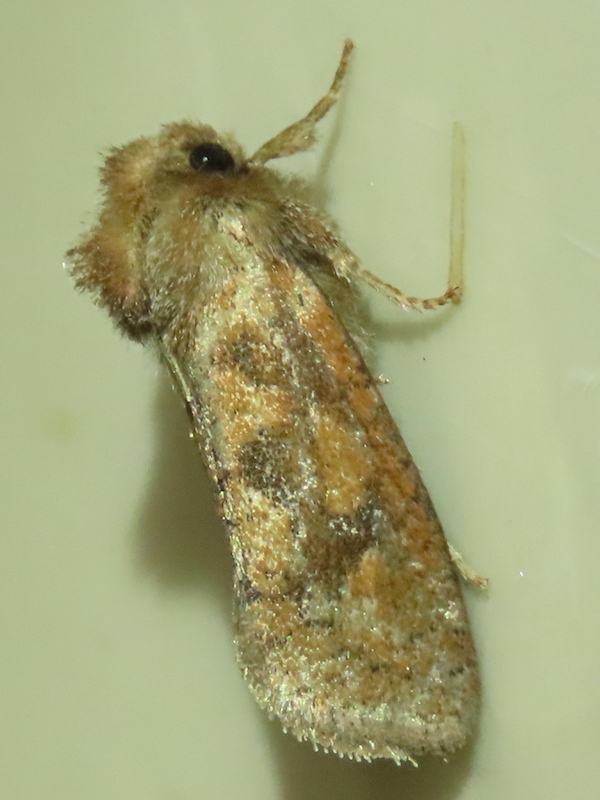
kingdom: Animalia
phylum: Arthropoda
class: Insecta
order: Lepidoptera
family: Tineidae
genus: Acrolophus
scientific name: Acrolophus plumifrontella
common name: Eastern grass tubeworm moth
